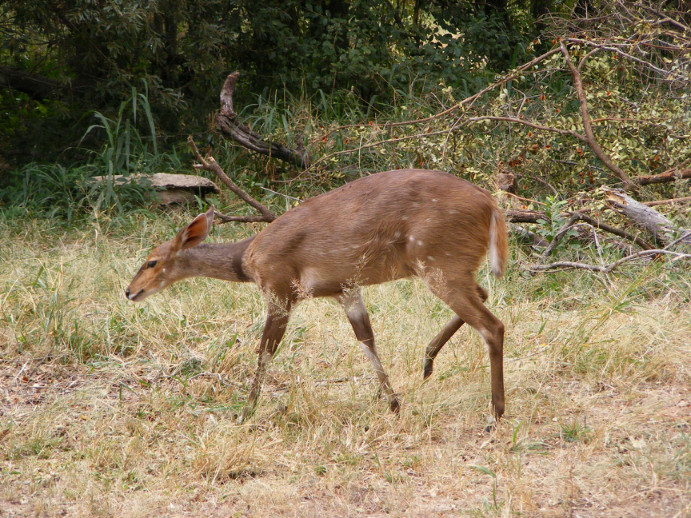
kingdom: Animalia
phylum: Chordata
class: Mammalia
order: Artiodactyla
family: Bovidae
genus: Tragelaphus
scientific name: Tragelaphus scriptus
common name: Bushbuck
